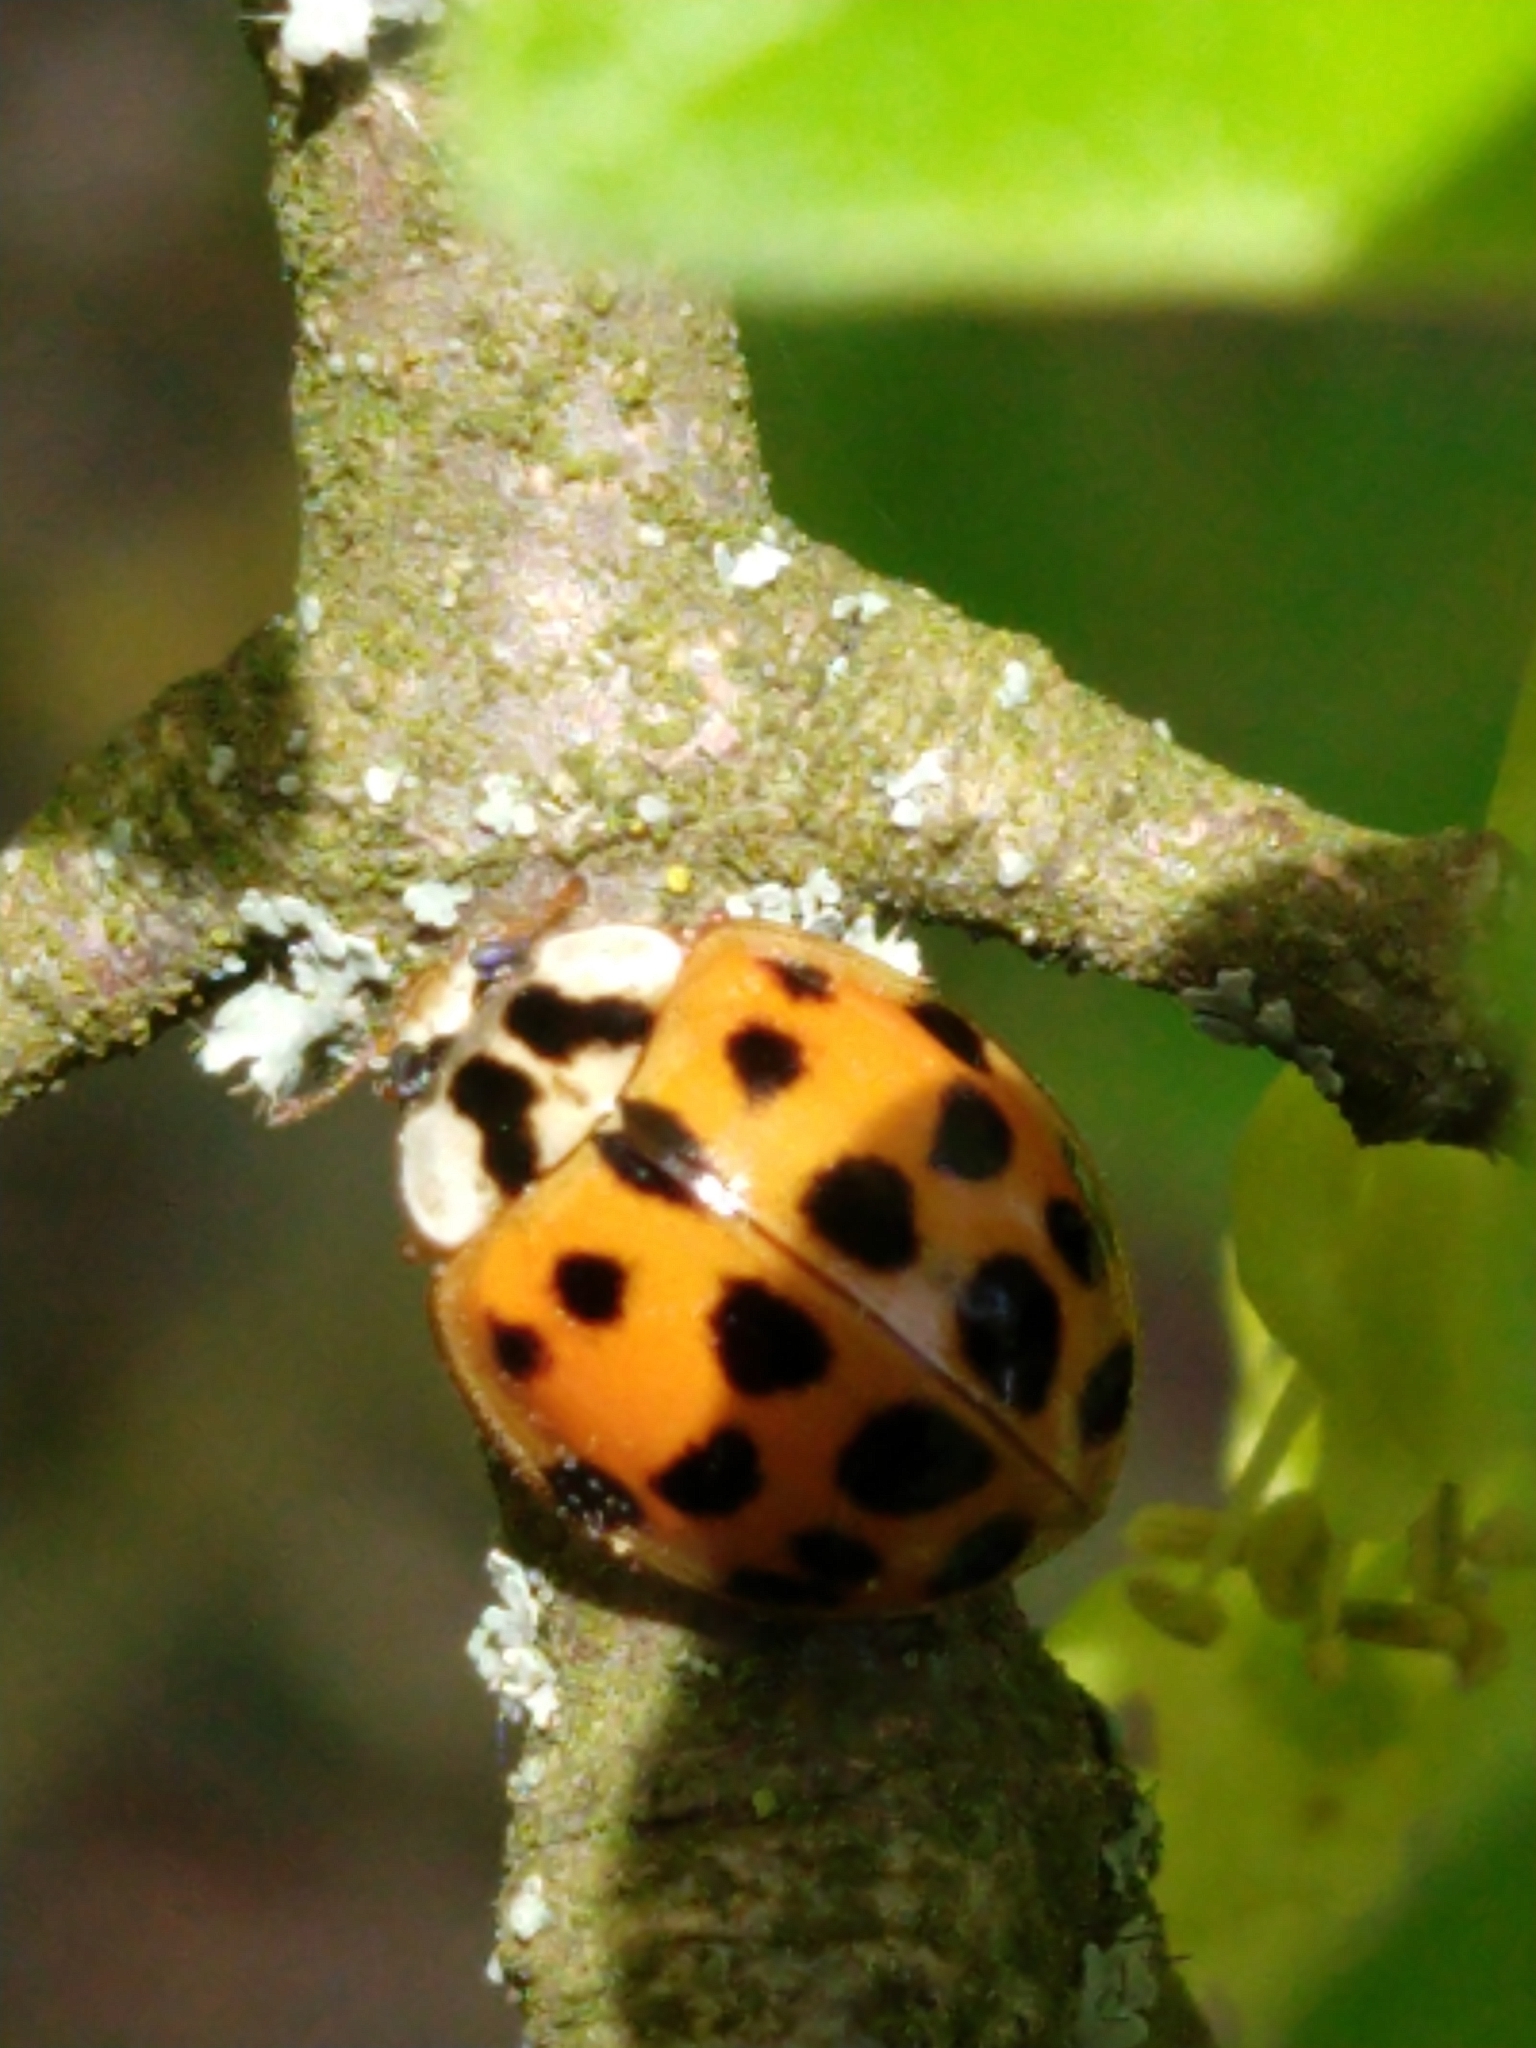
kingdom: Animalia
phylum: Arthropoda
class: Insecta
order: Coleoptera
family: Coccinellidae
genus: Harmonia
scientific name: Harmonia axyridis
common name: Harlequin ladybird
